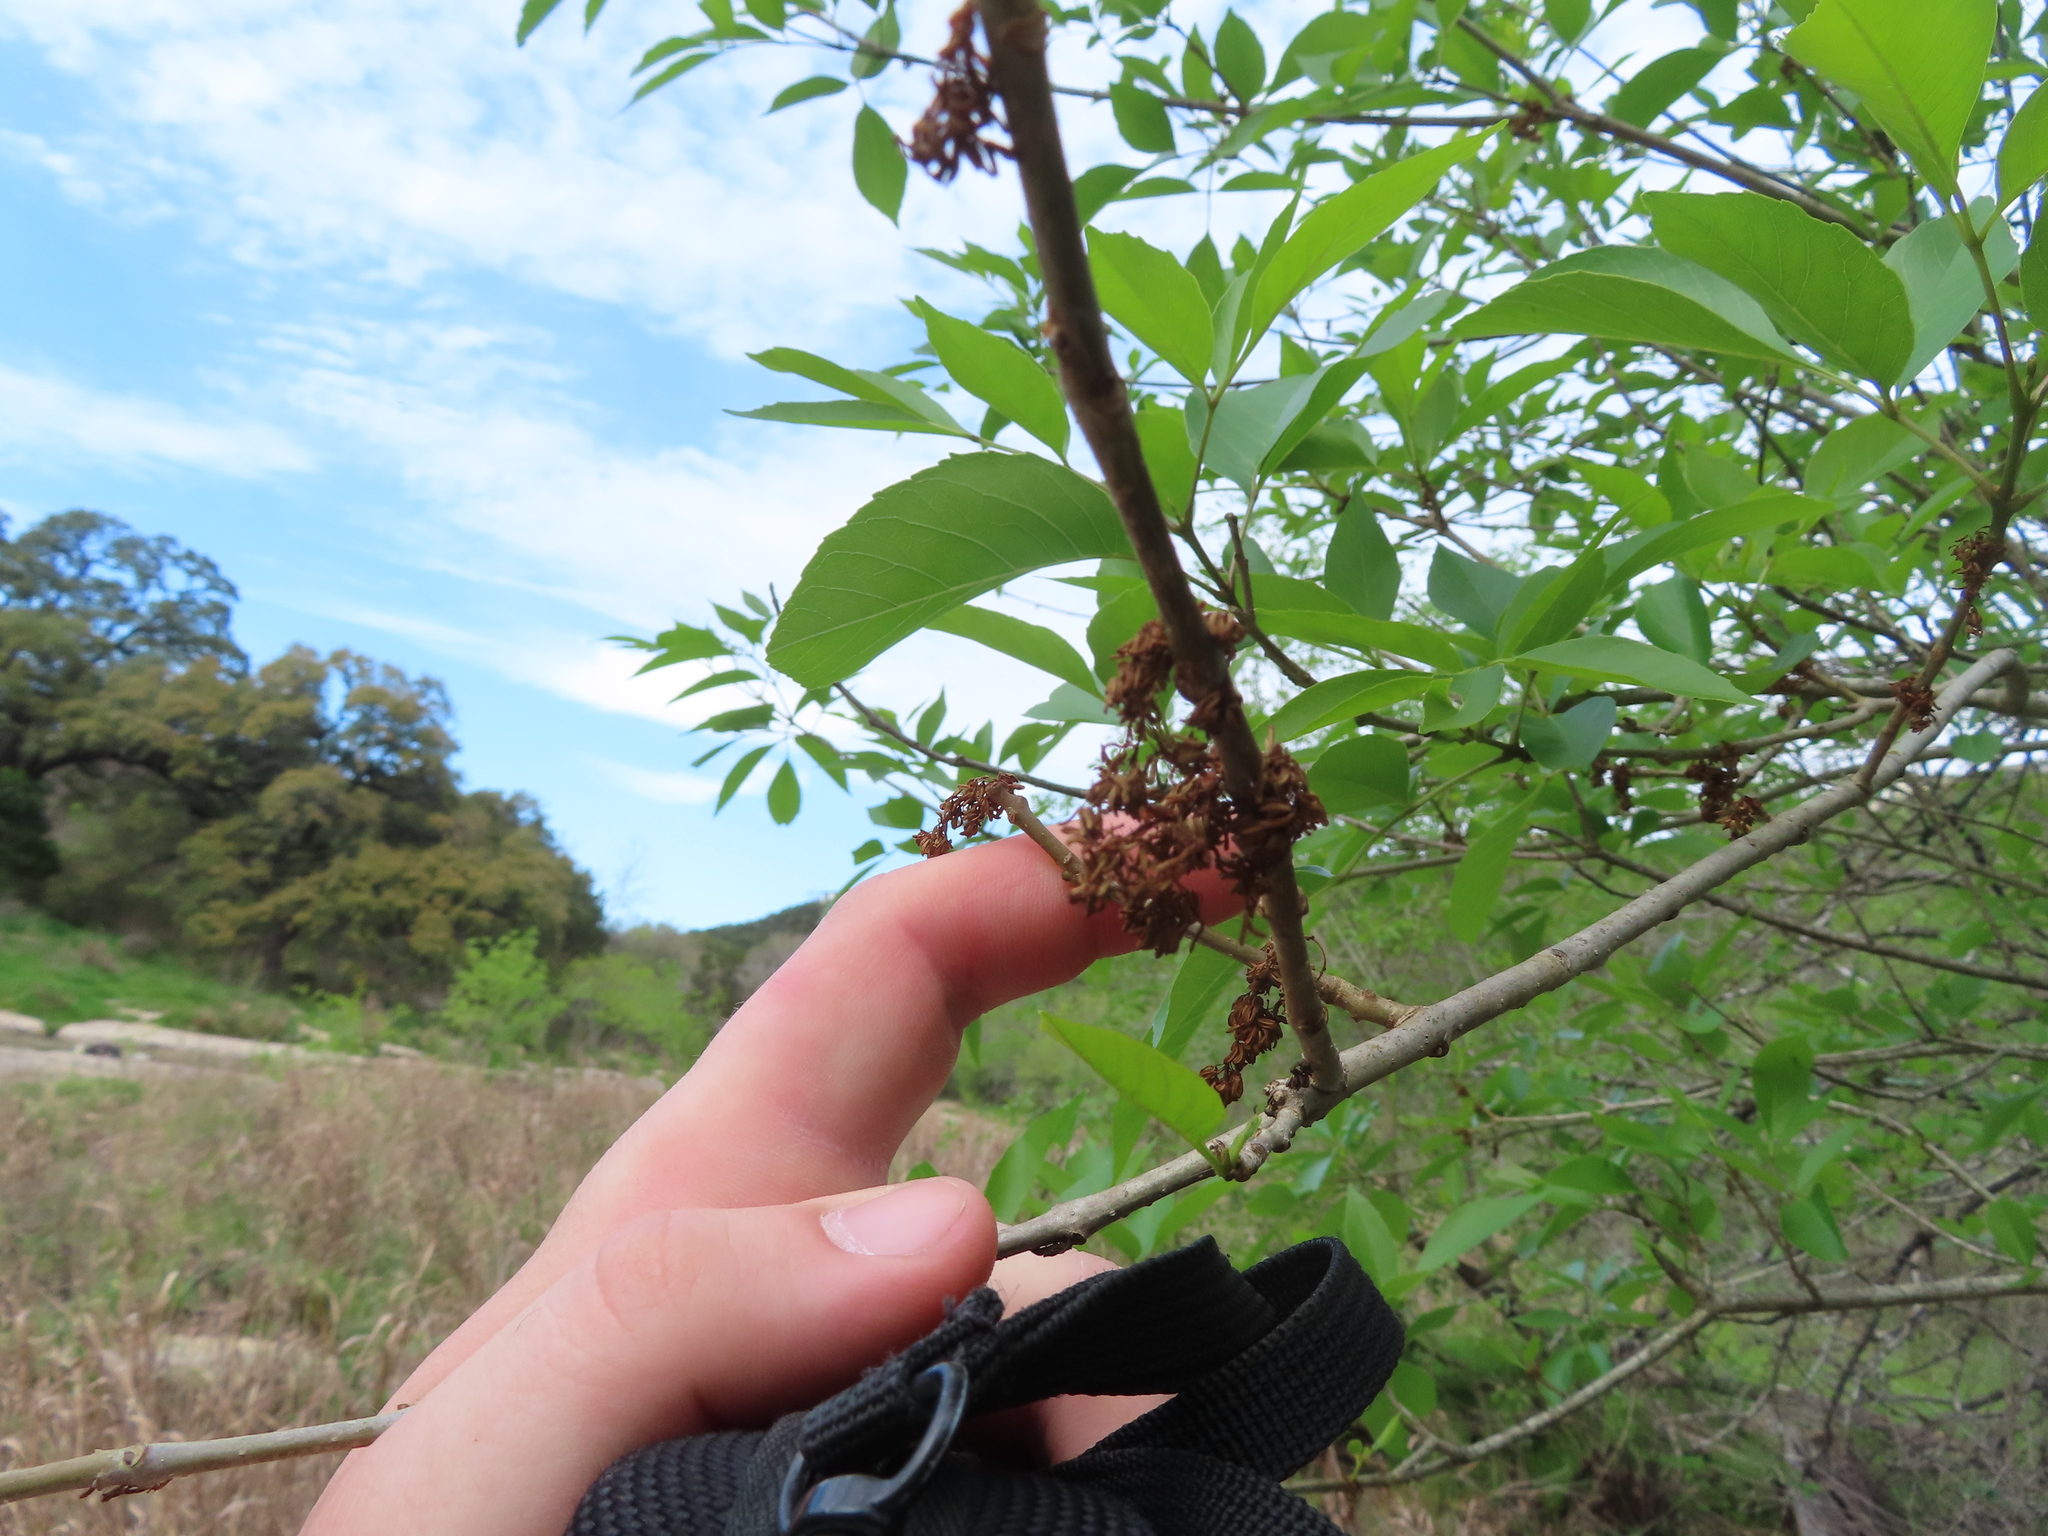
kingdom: Plantae
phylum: Tracheophyta
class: Magnoliopsida
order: Sapindales
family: Sapindaceae
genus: Ungnadia
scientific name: Ungnadia speciosa
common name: Texas-buckeye
